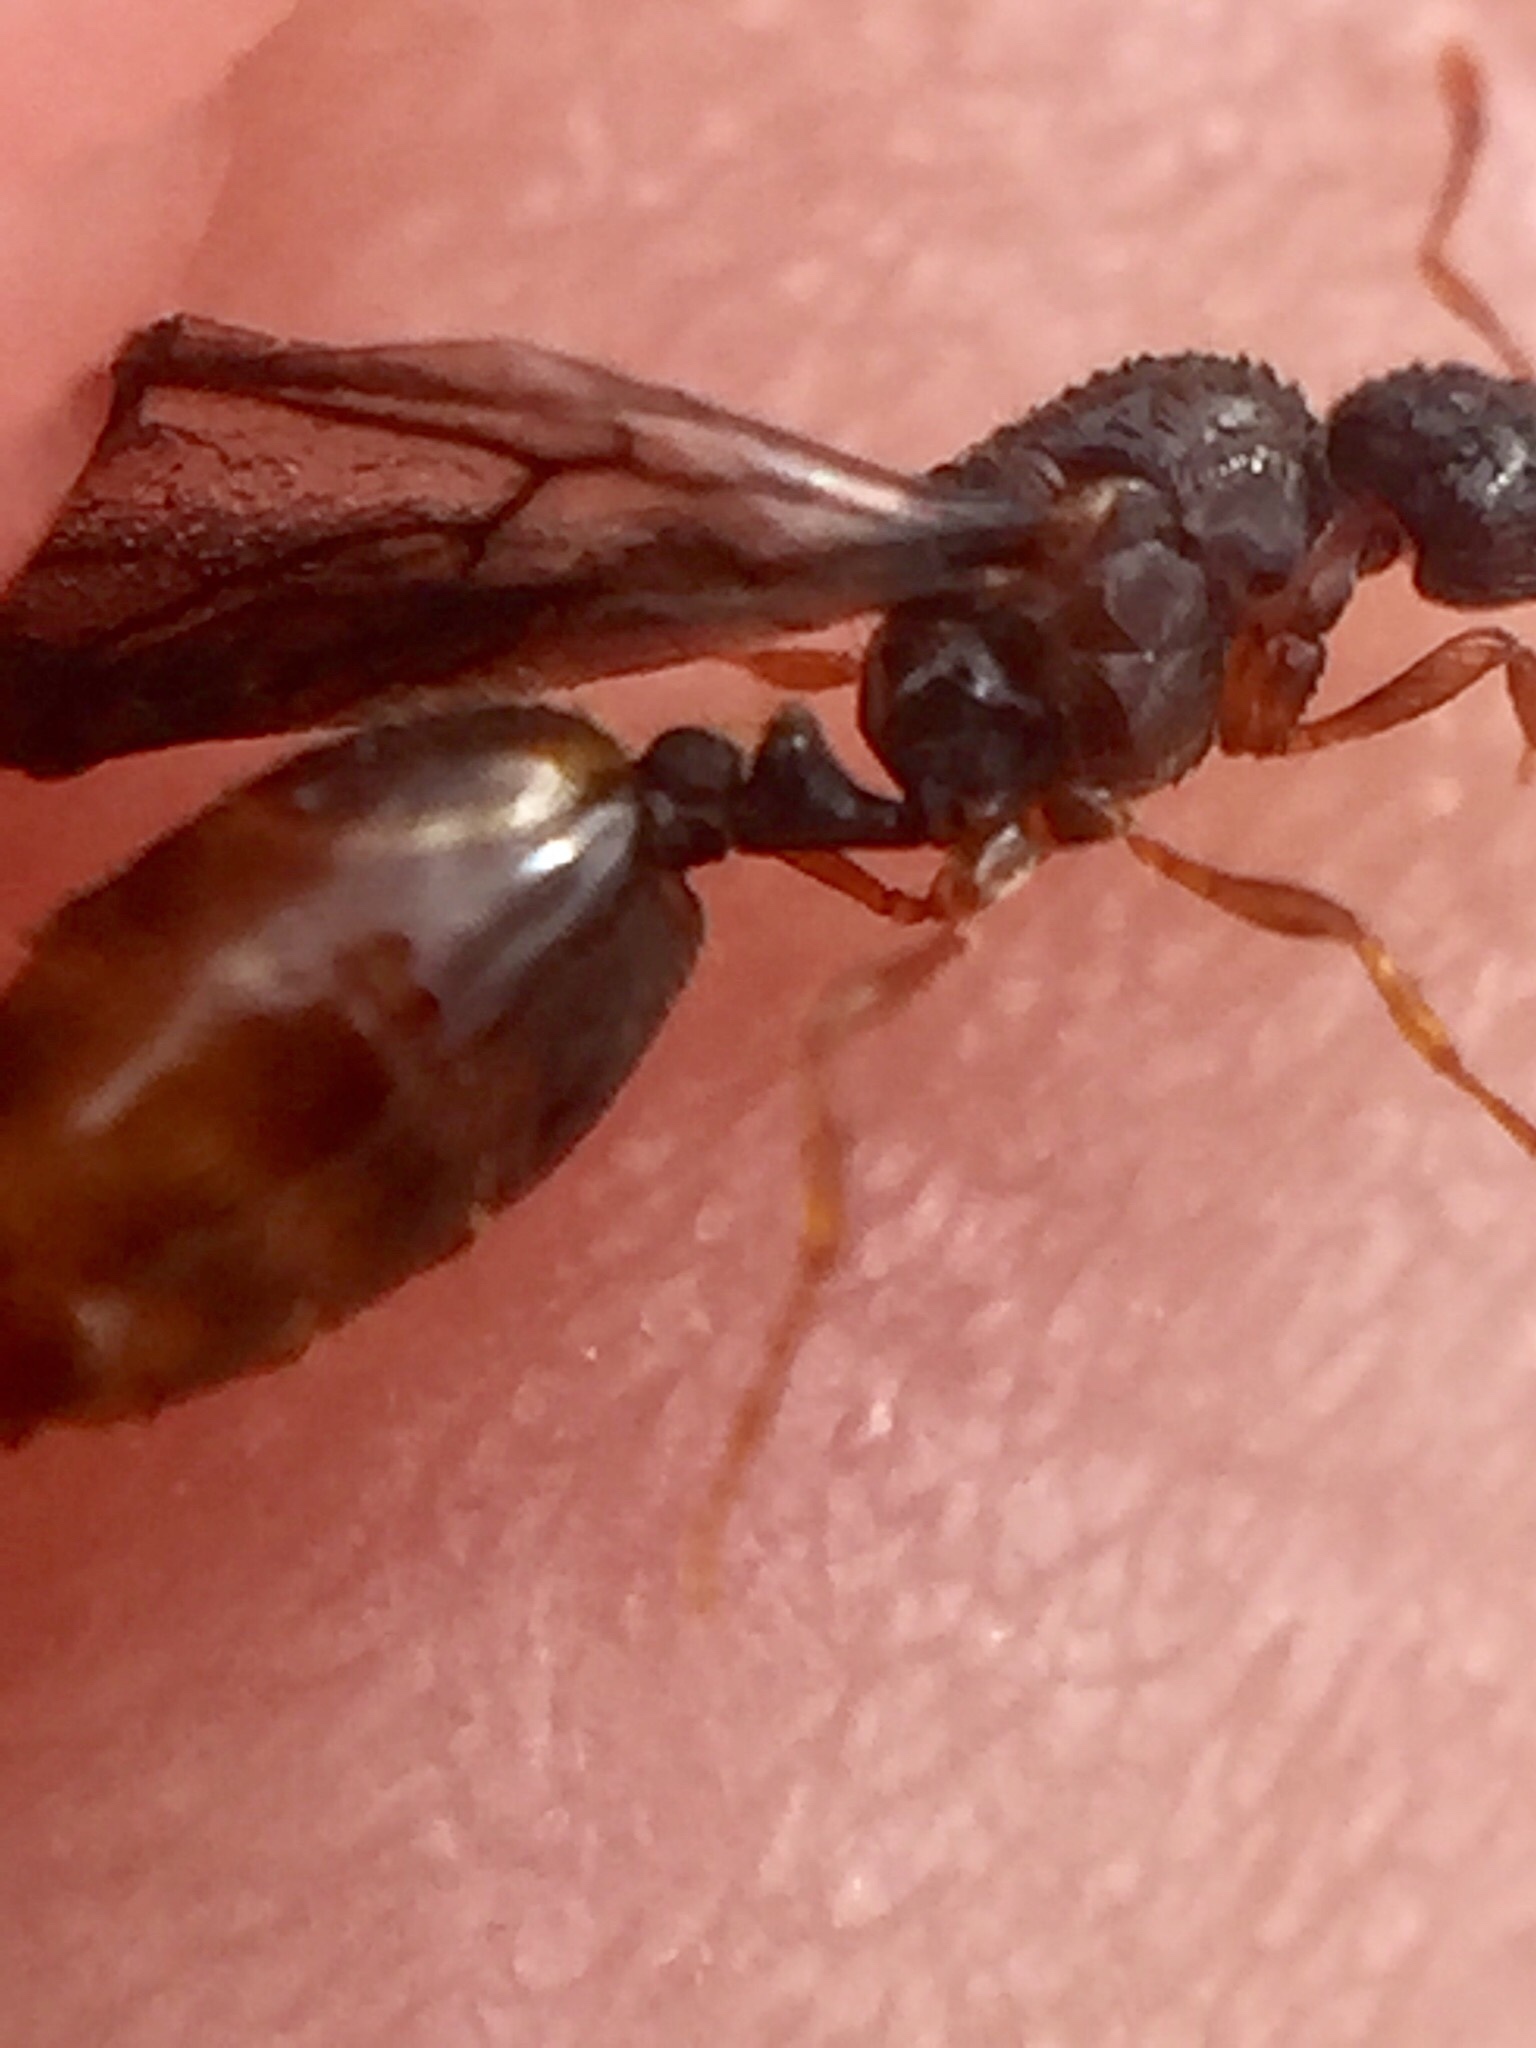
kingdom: Animalia
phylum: Arthropoda
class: Insecta
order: Hymenoptera
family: Formicidae
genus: Solenopsis
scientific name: Solenopsis
